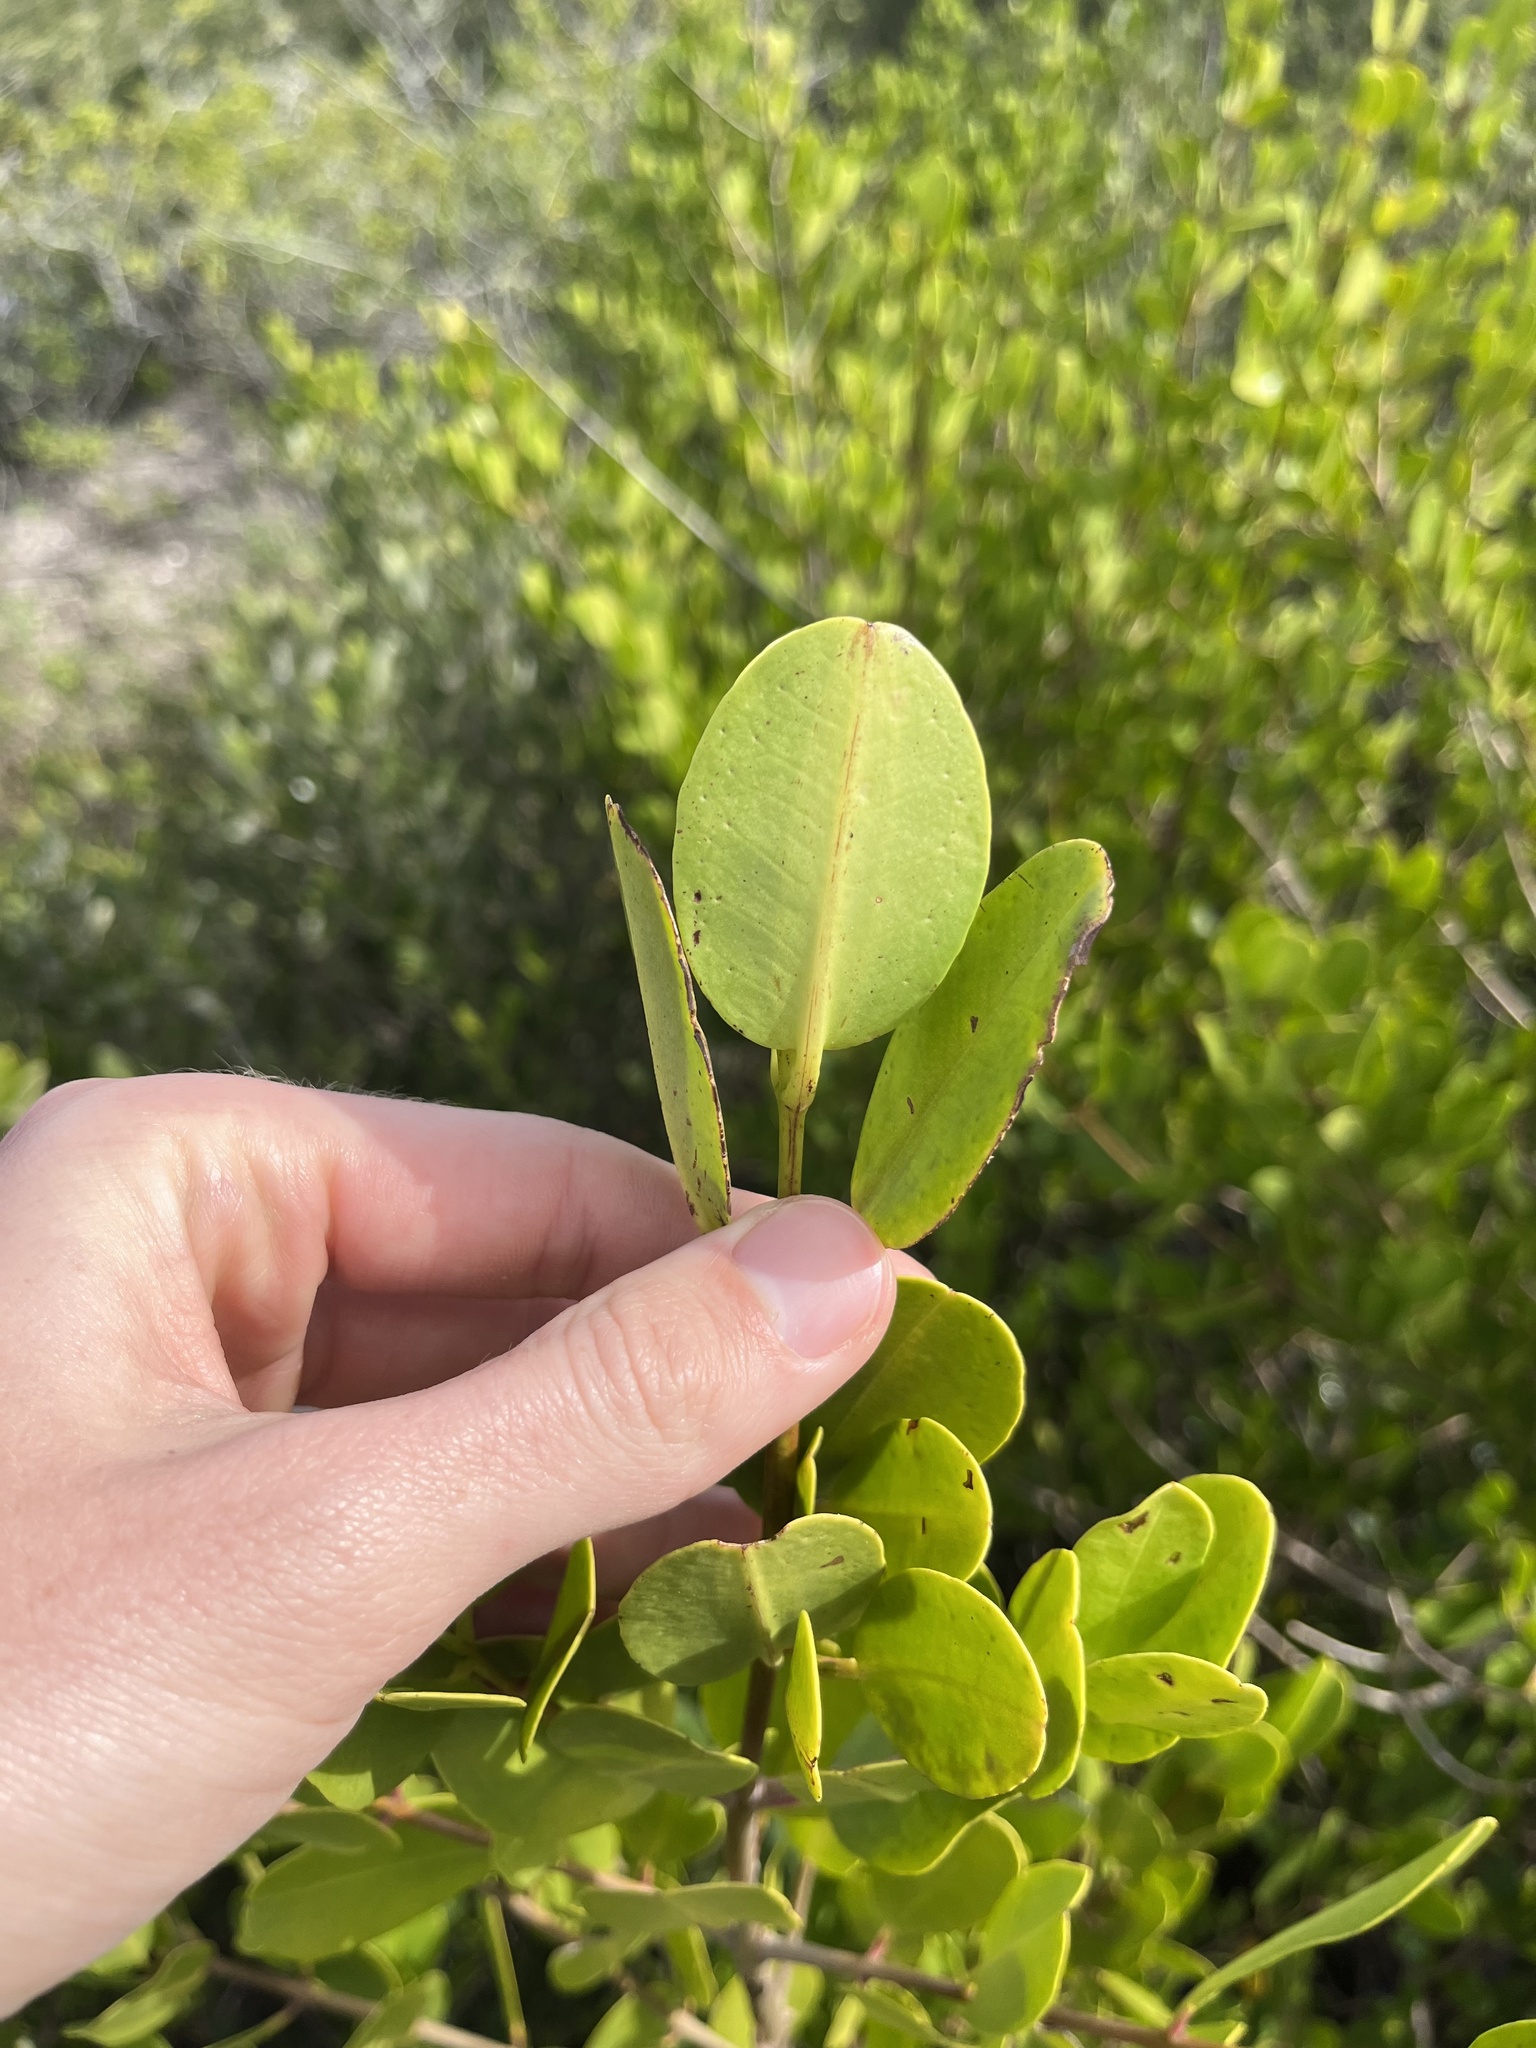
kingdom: Plantae
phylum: Tracheophyta
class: Magnoliopsida
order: Myrtales
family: Combretaceae
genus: Laguncularia
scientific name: Laguncularia racemosa
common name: White mangrove
